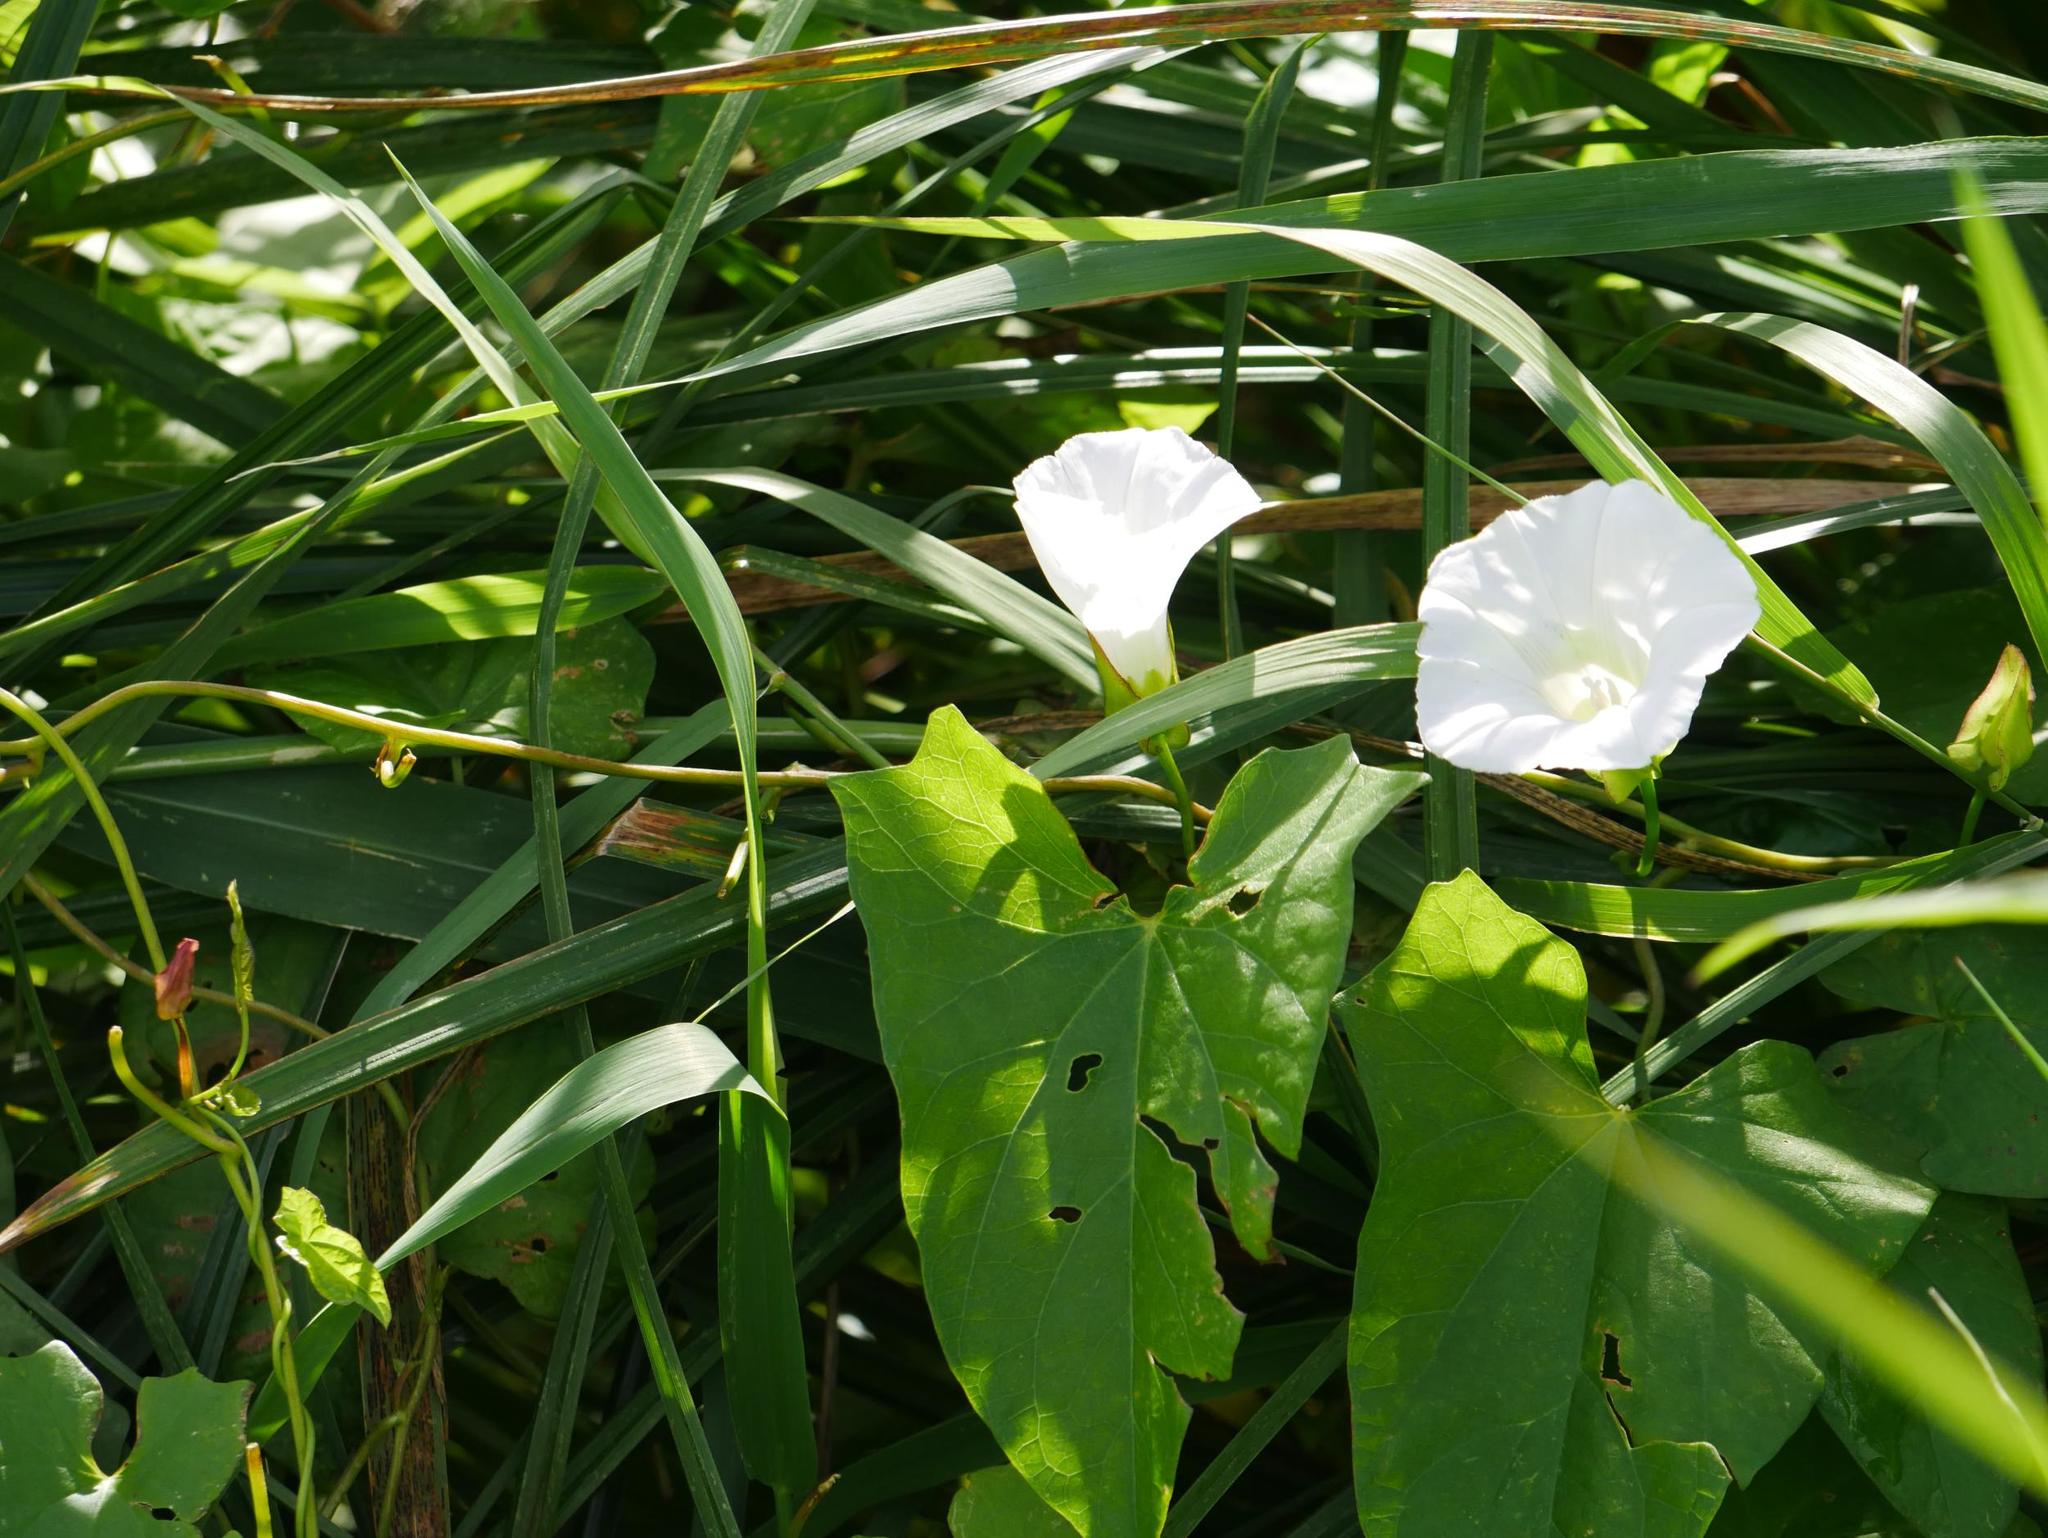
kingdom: Plantae
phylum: Tracheophyta
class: Magnoliopsida
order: Solanales
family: Convolvulaceae
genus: Calystegia
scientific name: Calystegia sepium
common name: Hedge bindweed
